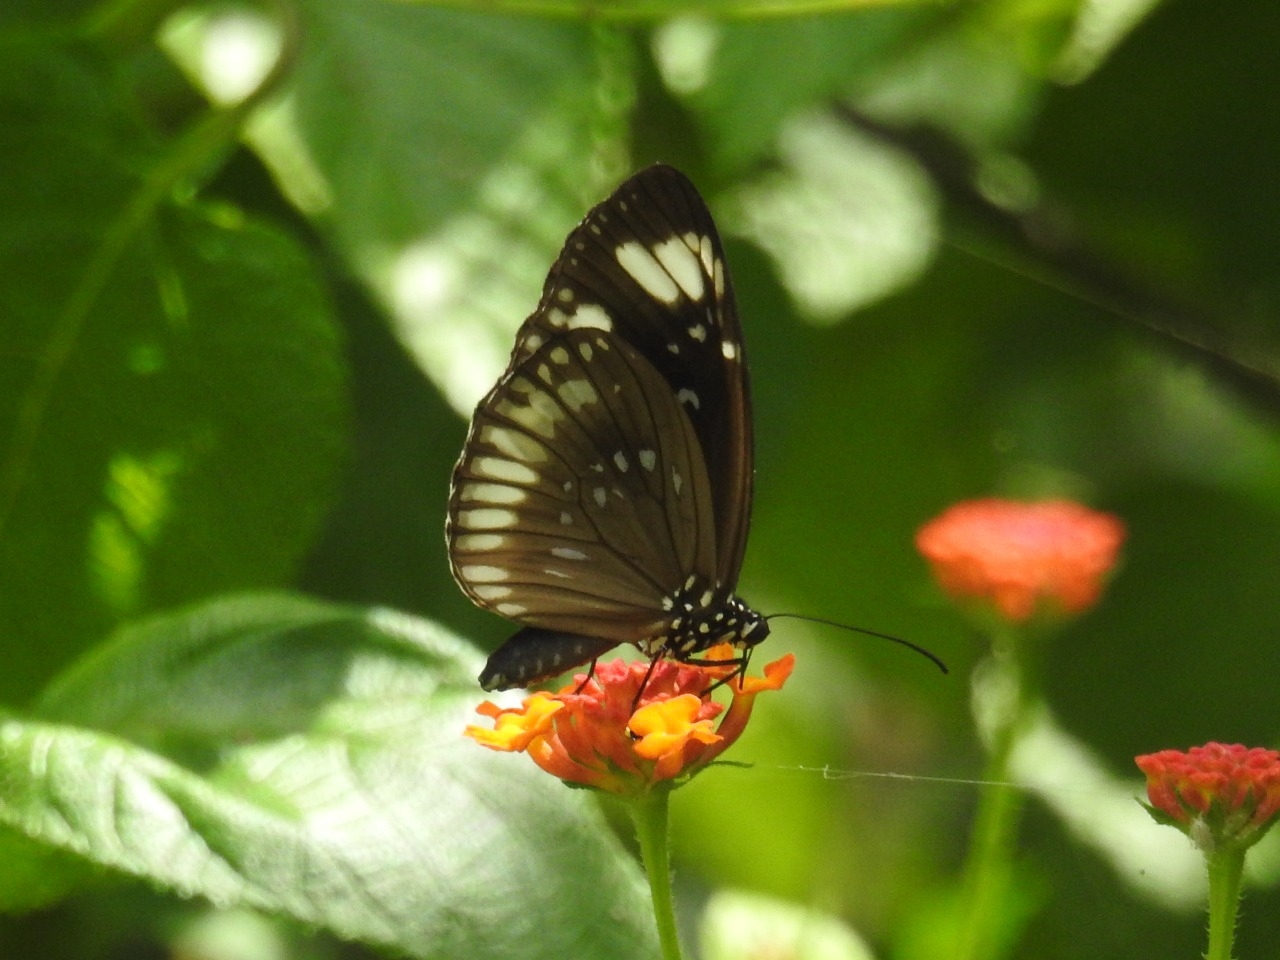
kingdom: Animalia
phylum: Arthropoda
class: Insecta
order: Lepidoptera
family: Nymphalidae
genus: Euploea
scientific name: Euploea algea
